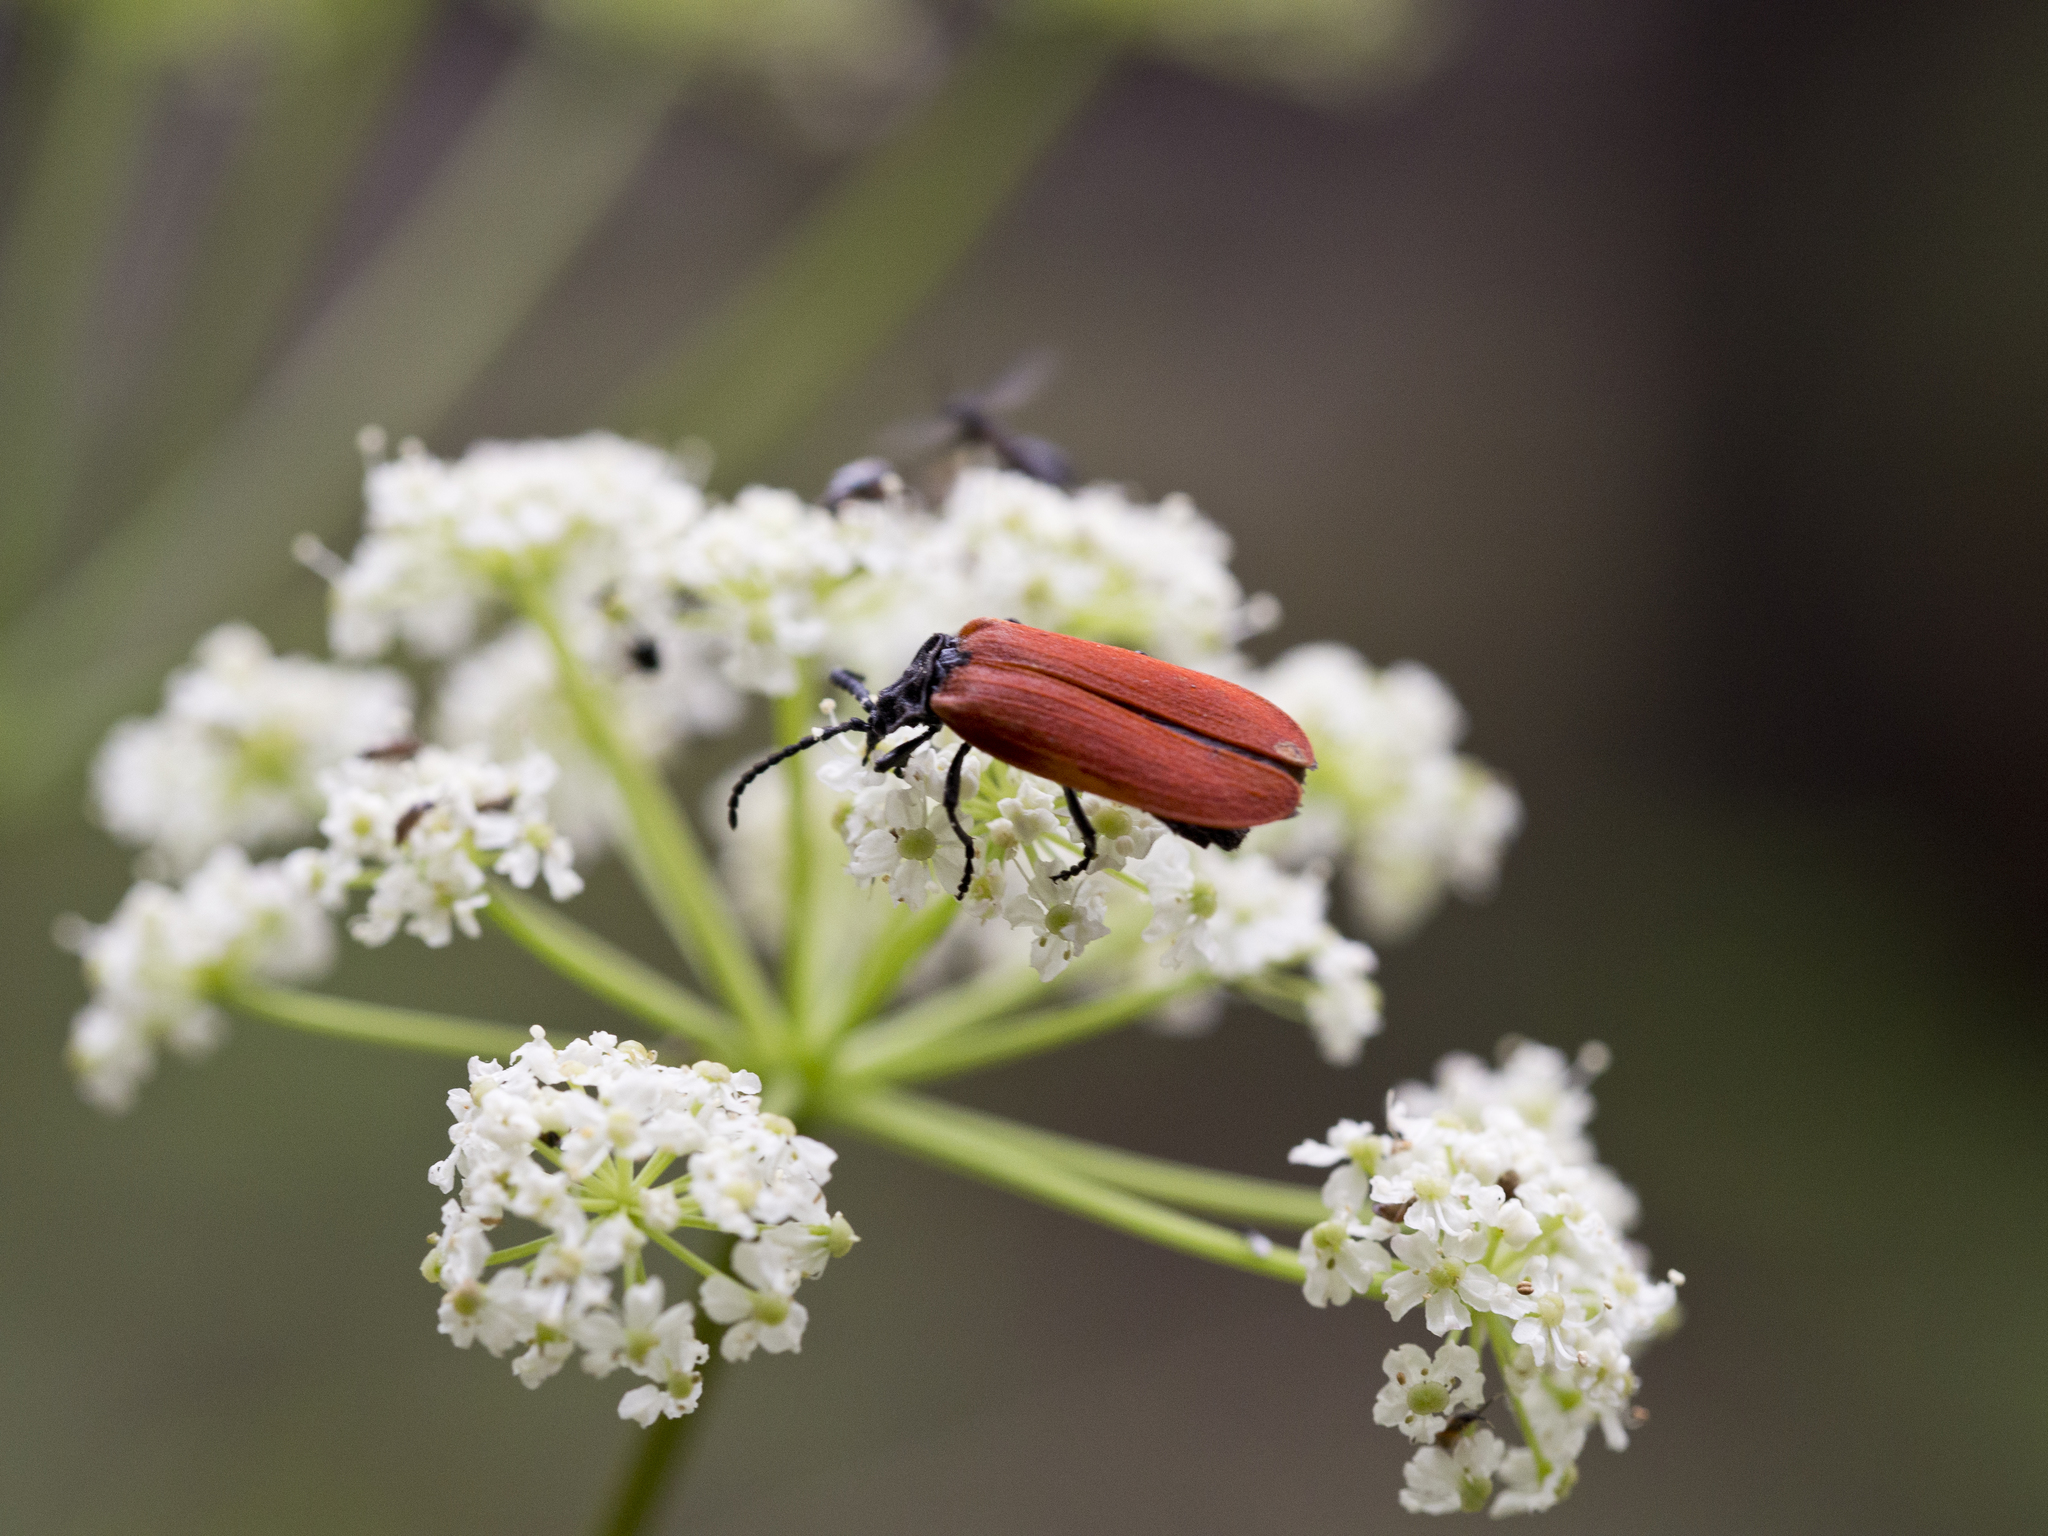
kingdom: Animalia
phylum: Arthropoda
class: Insecta
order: Coleoptera
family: Lycidae
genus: Macrolygistopterus
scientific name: Macrolygistopterus
